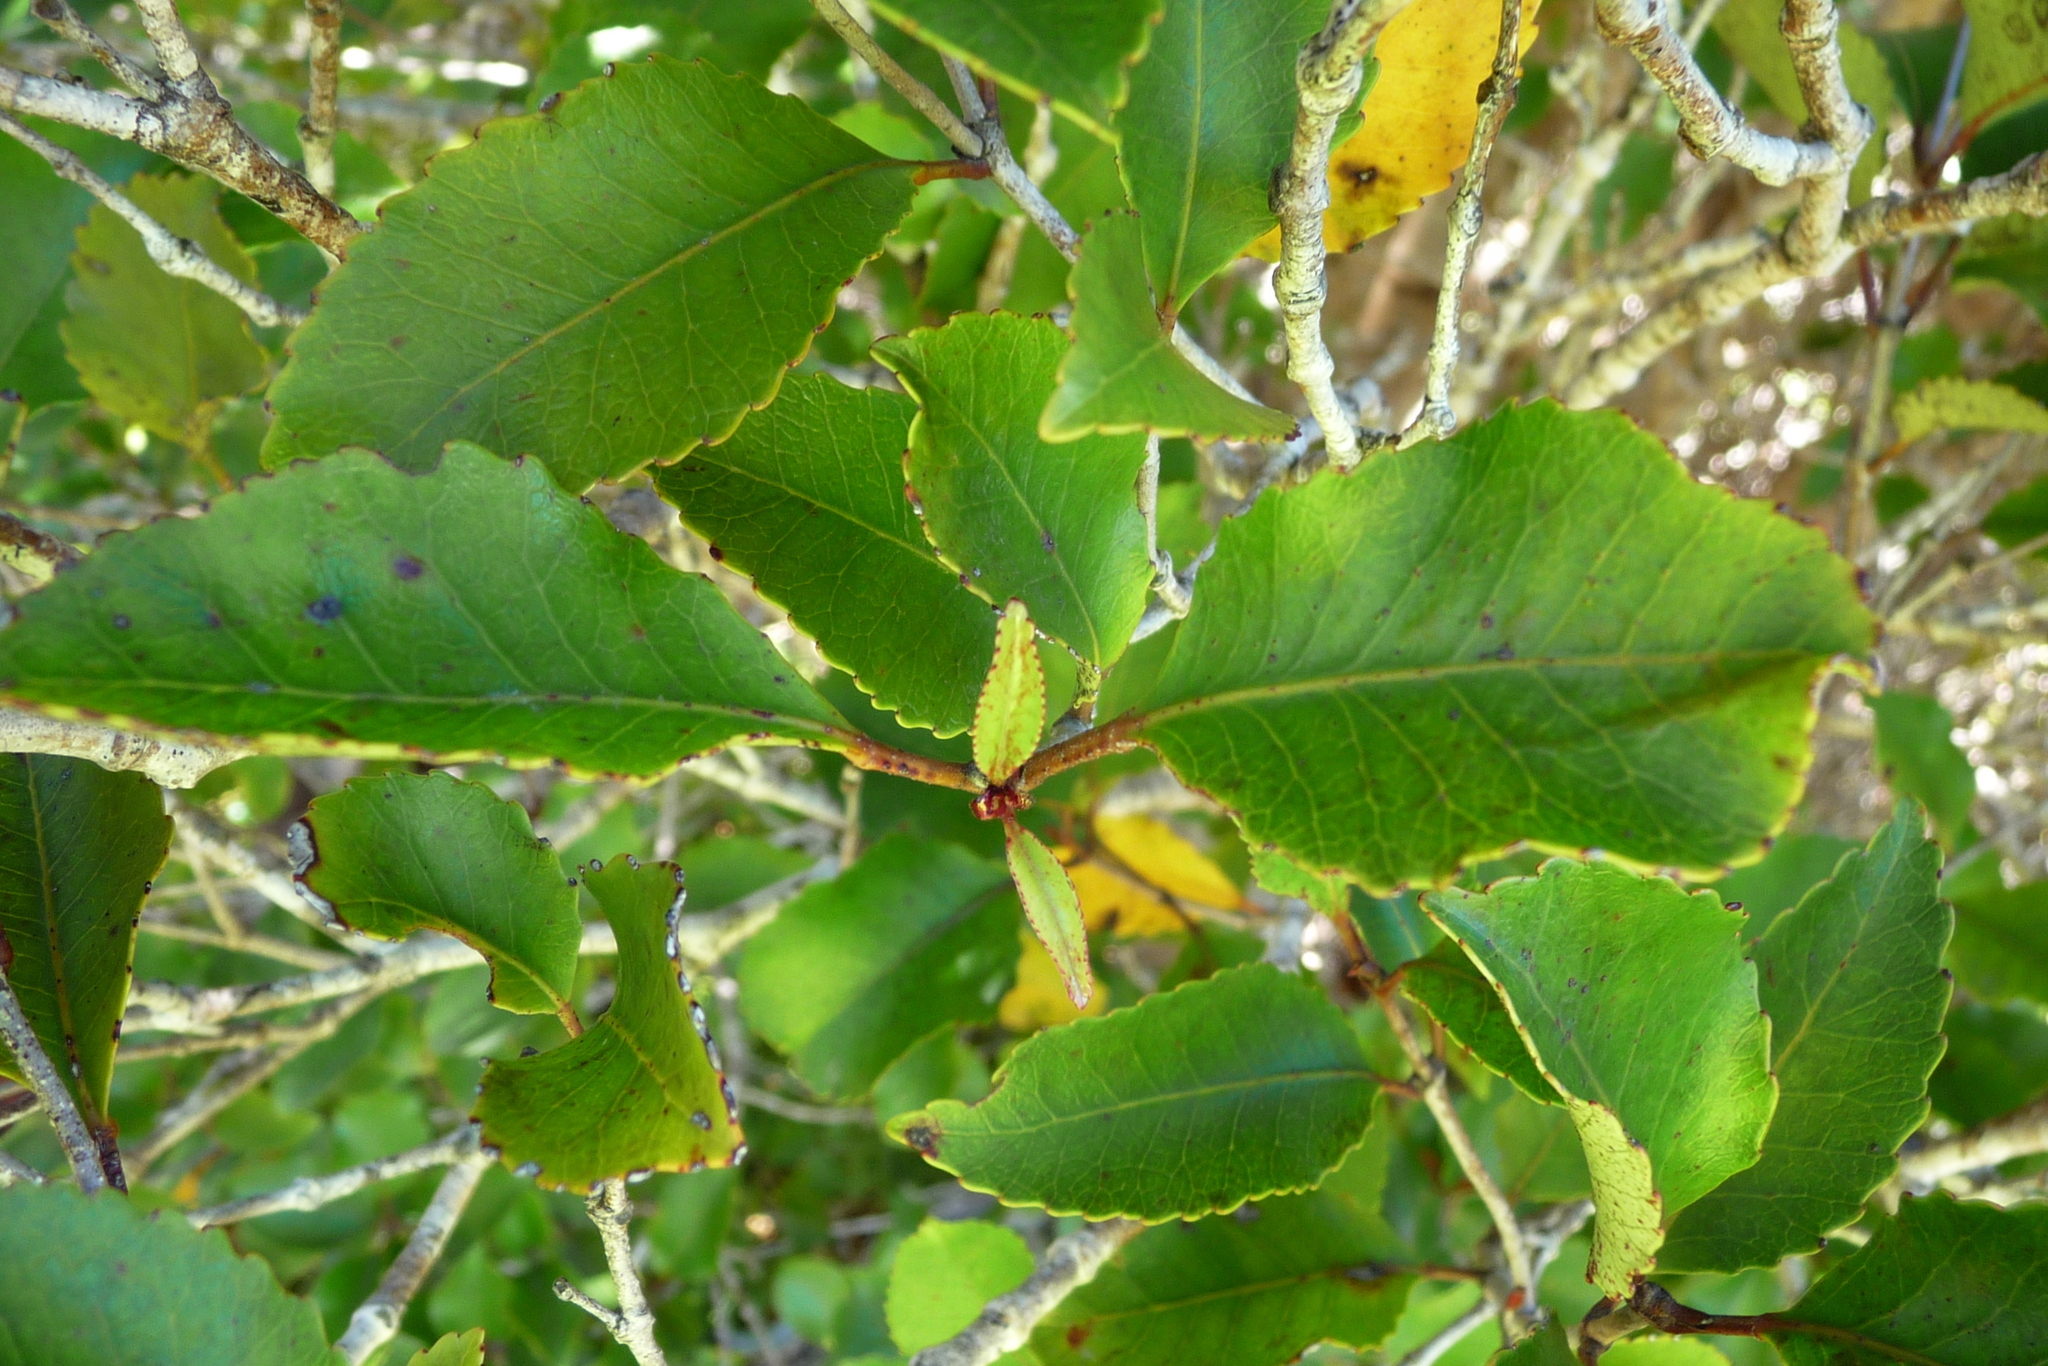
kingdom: Plantae
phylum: Tracheophyta
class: Magnoliopsida
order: Oxalidales
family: Cunoniaceae
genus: Pterophylla
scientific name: Pterophylla racemosa
